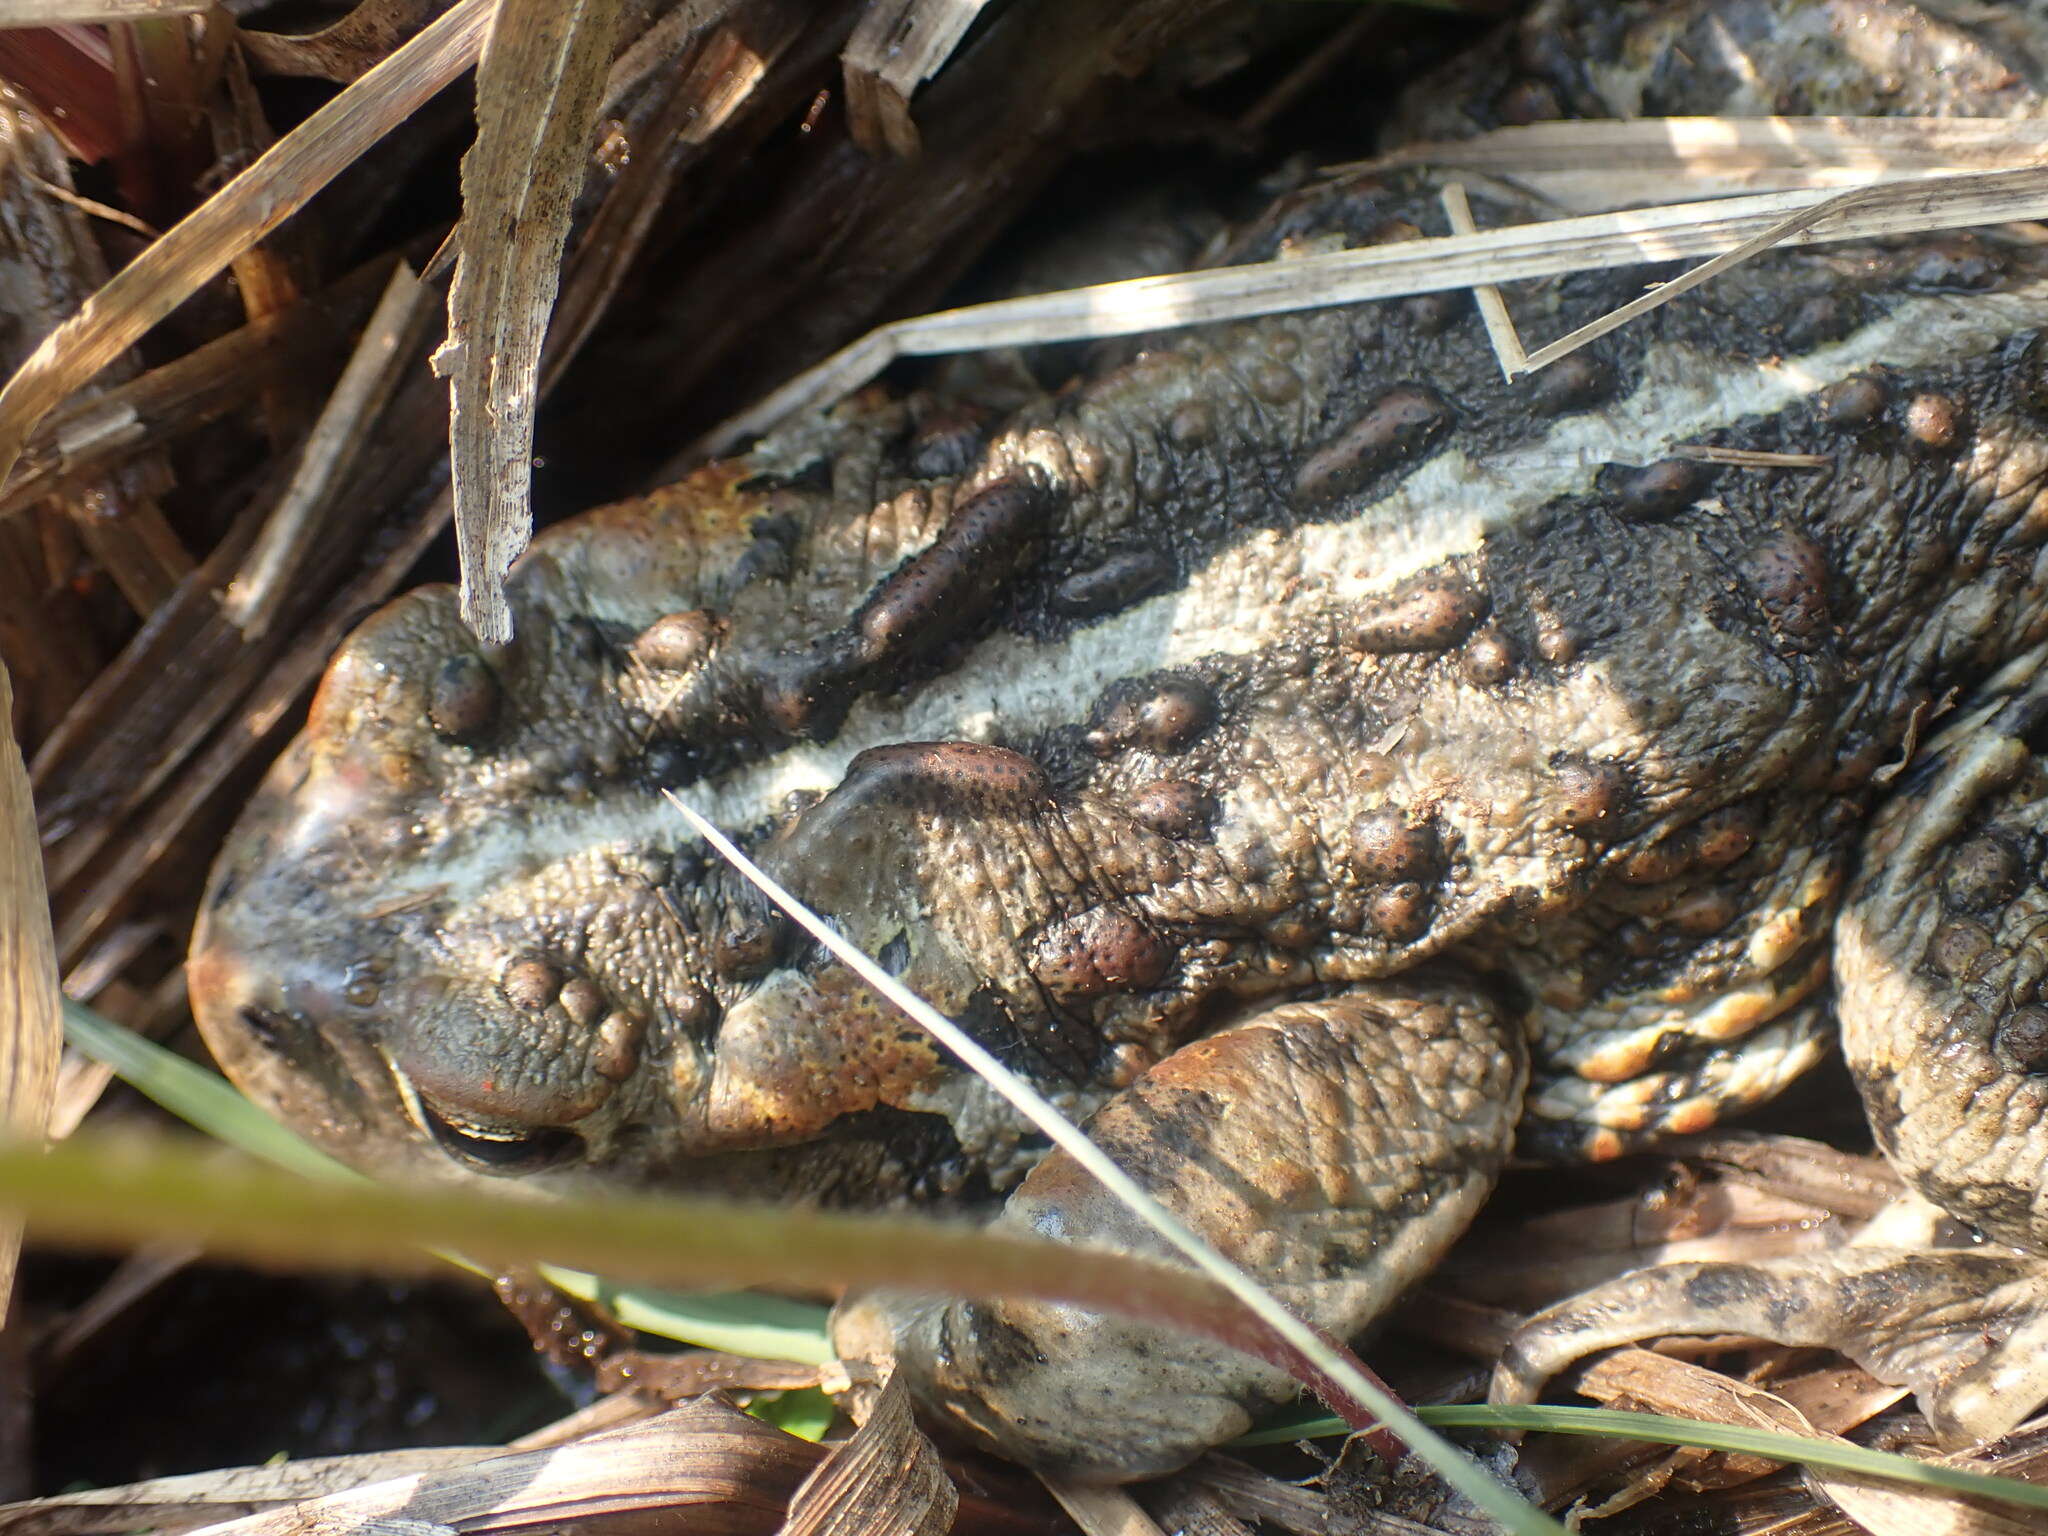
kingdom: Animalia
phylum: Chordata
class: Amphibia
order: Anura
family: Bufonidae
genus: Anaxyrus
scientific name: Anaxyrus boreas
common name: Western toad
